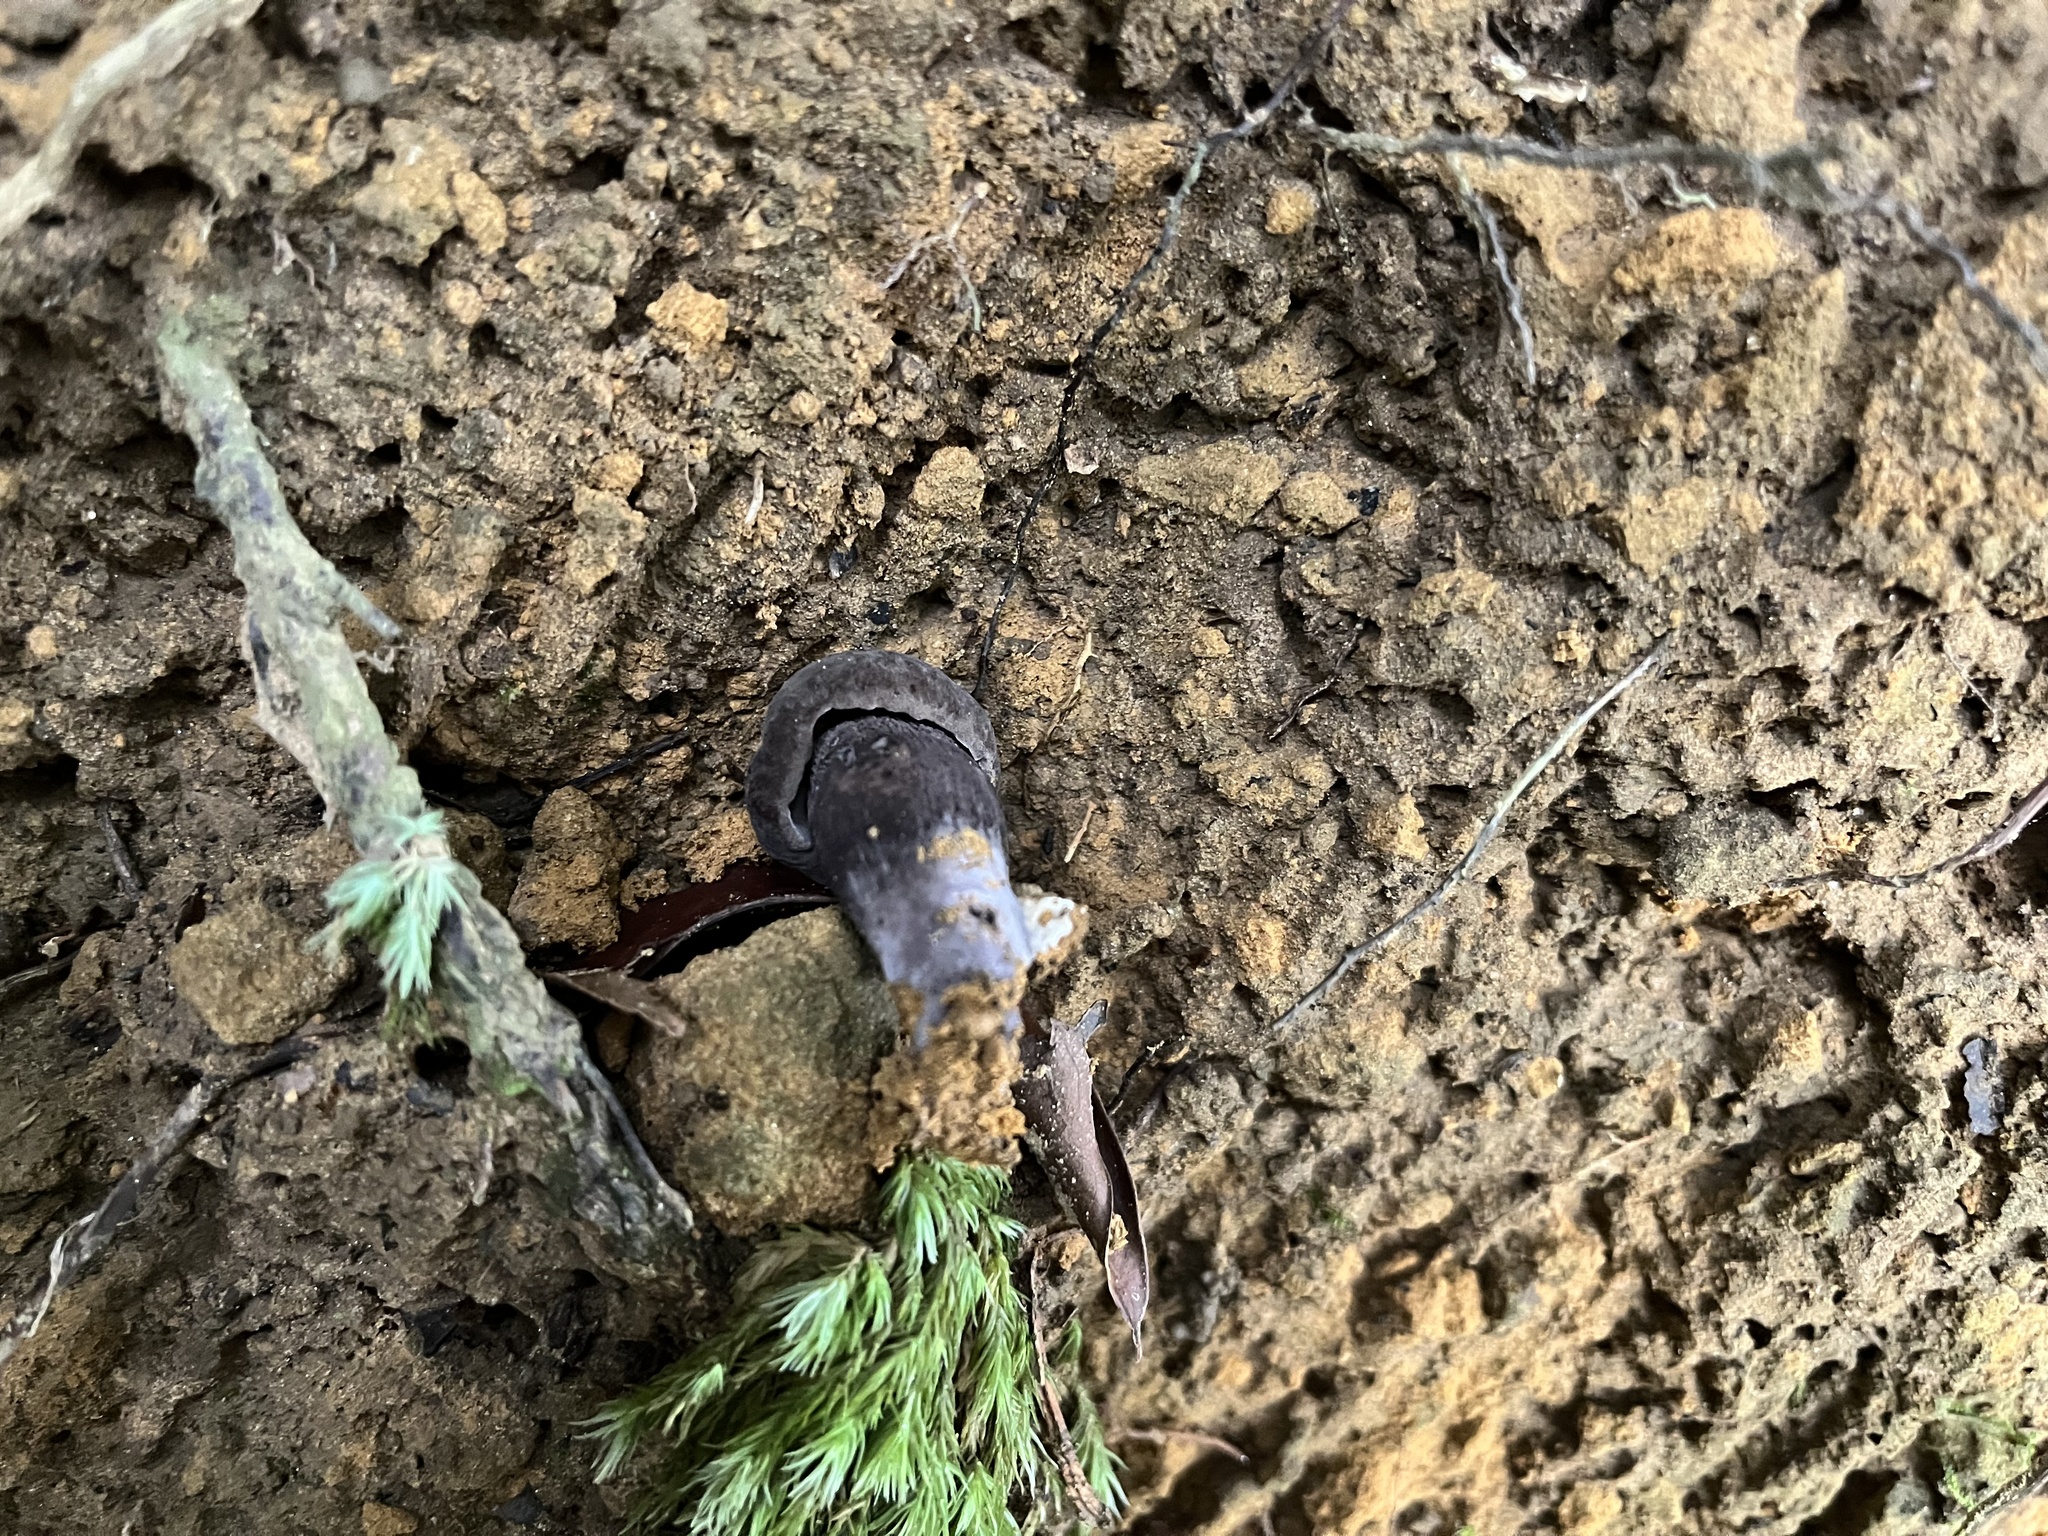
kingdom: Fungi
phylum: Basidiomycota
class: Agaricomycetes
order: Boletales
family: Boletaceae
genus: Tylopilus
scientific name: Tylopilus alboater
